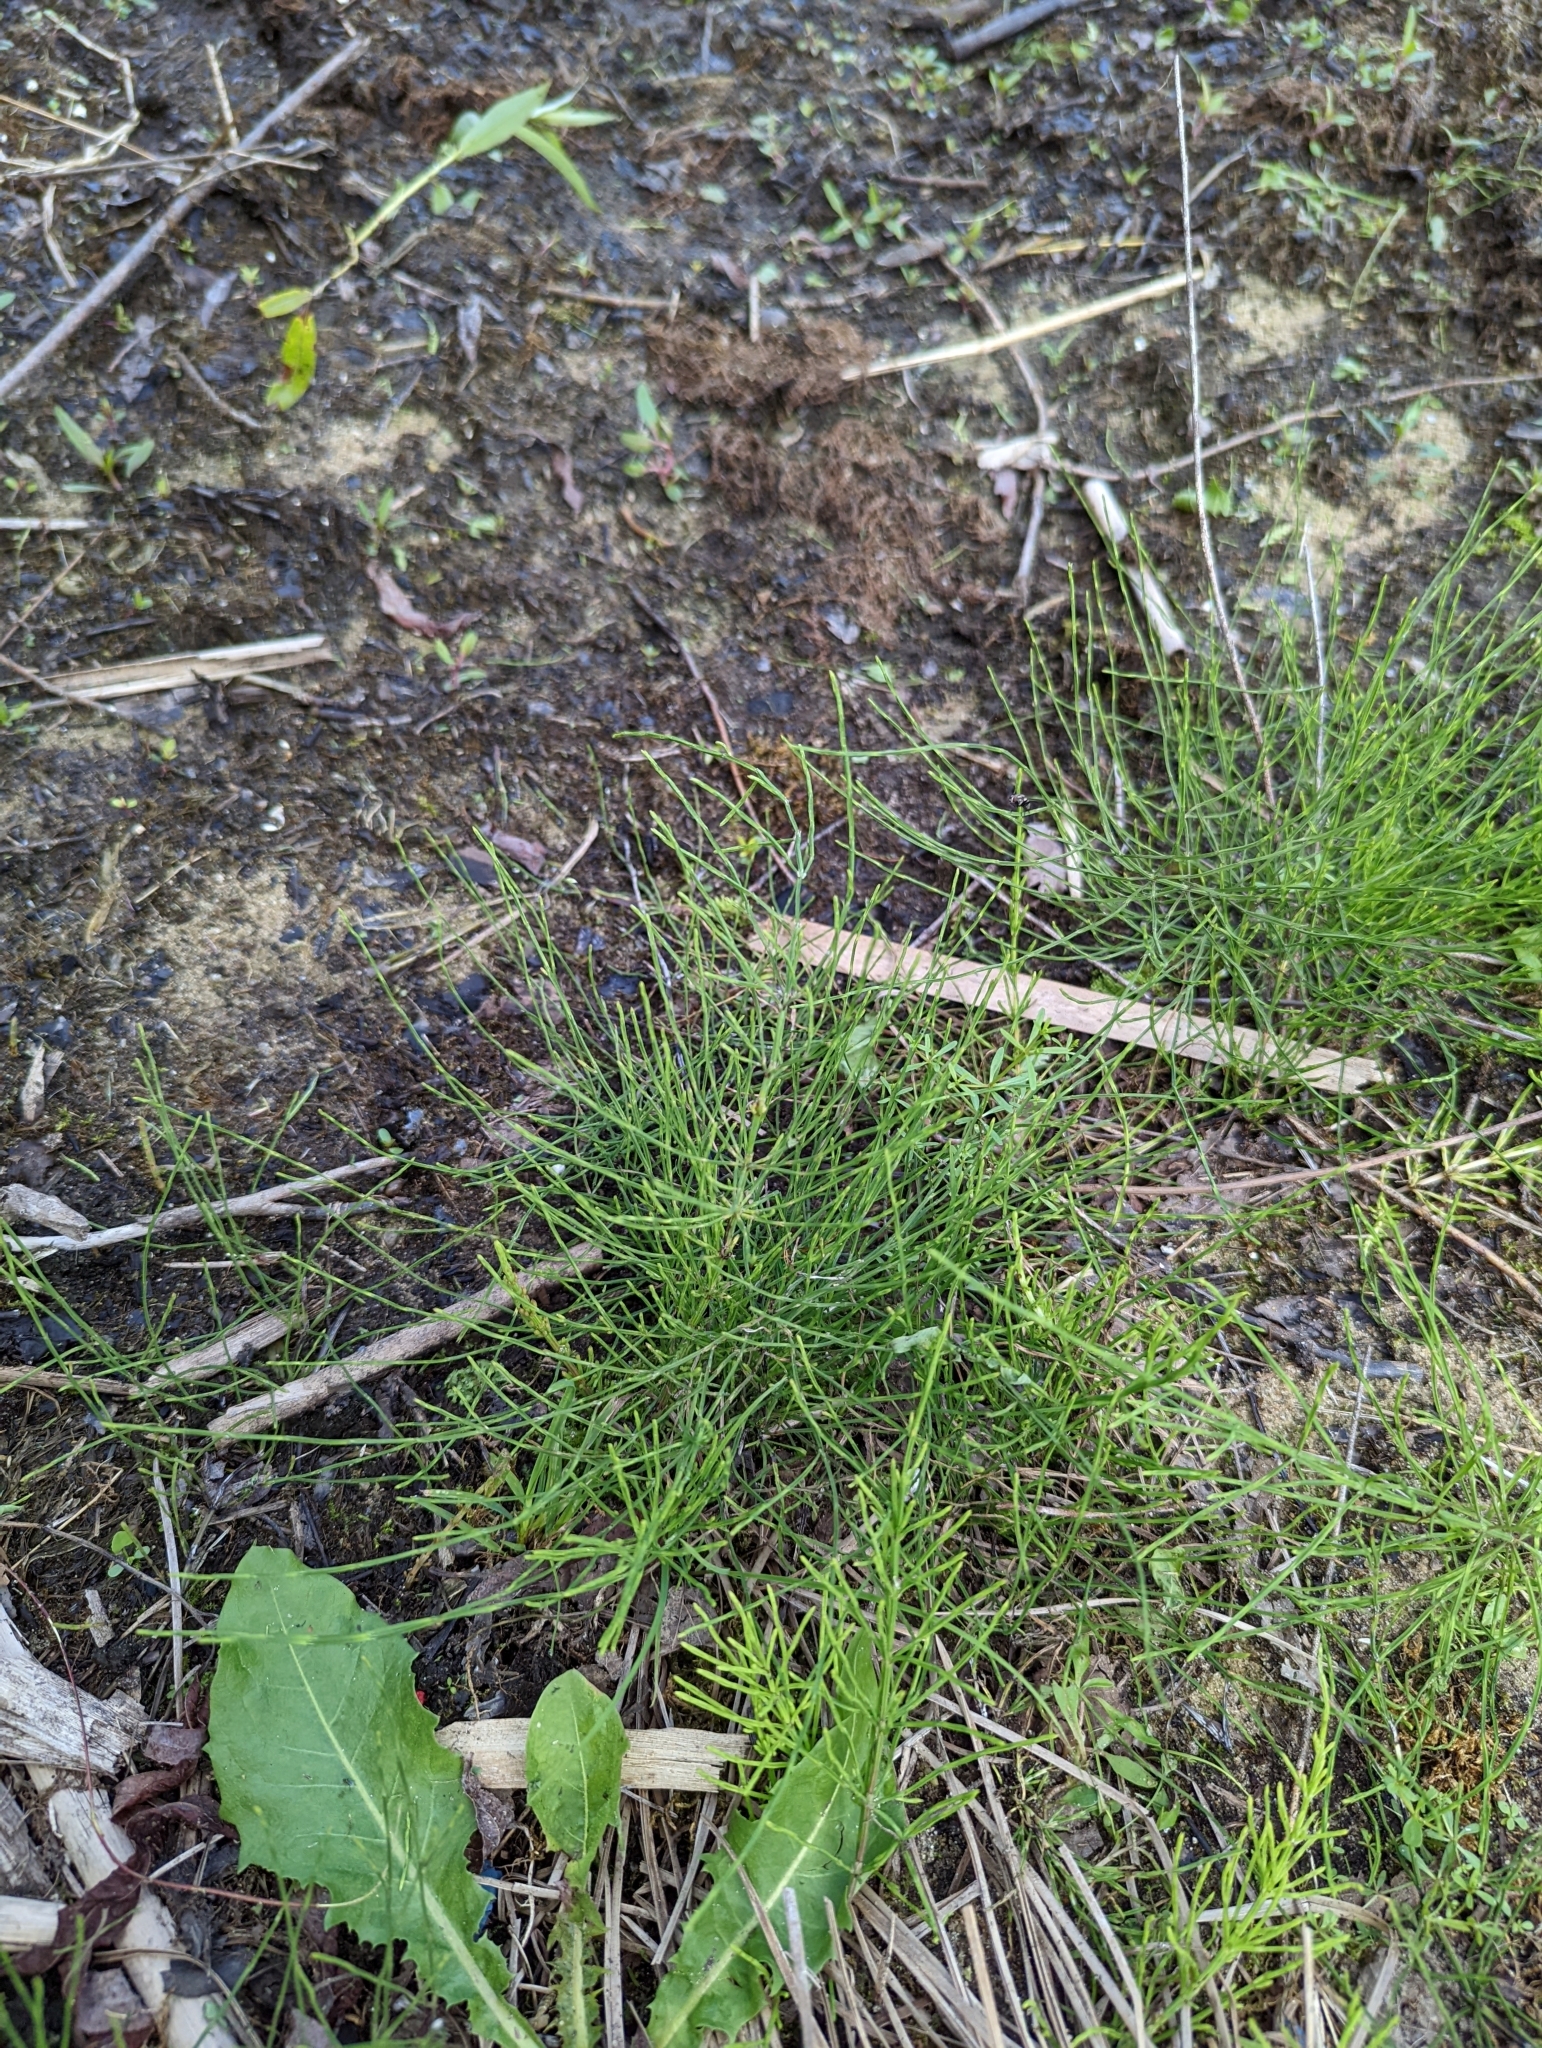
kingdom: Plantae
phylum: Tracheophyta
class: Polypodiopsida
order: Equisetales
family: Equisetaceae
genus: Equisetum
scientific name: Equisetum arvense
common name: Field horsetail
